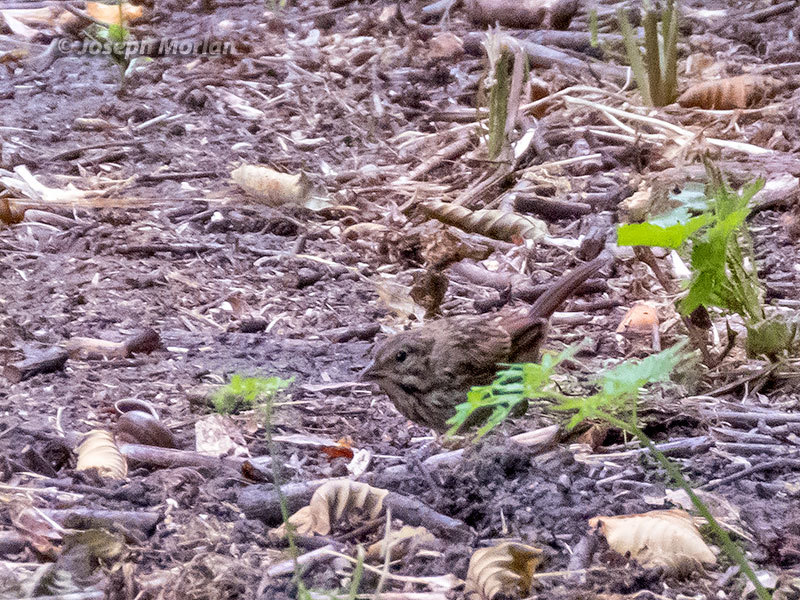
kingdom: Animalia
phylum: Chordata
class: Aves
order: Passeriformes
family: Passerellidae
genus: Melospiza
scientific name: Melospiza melodia
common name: Song sparrow
